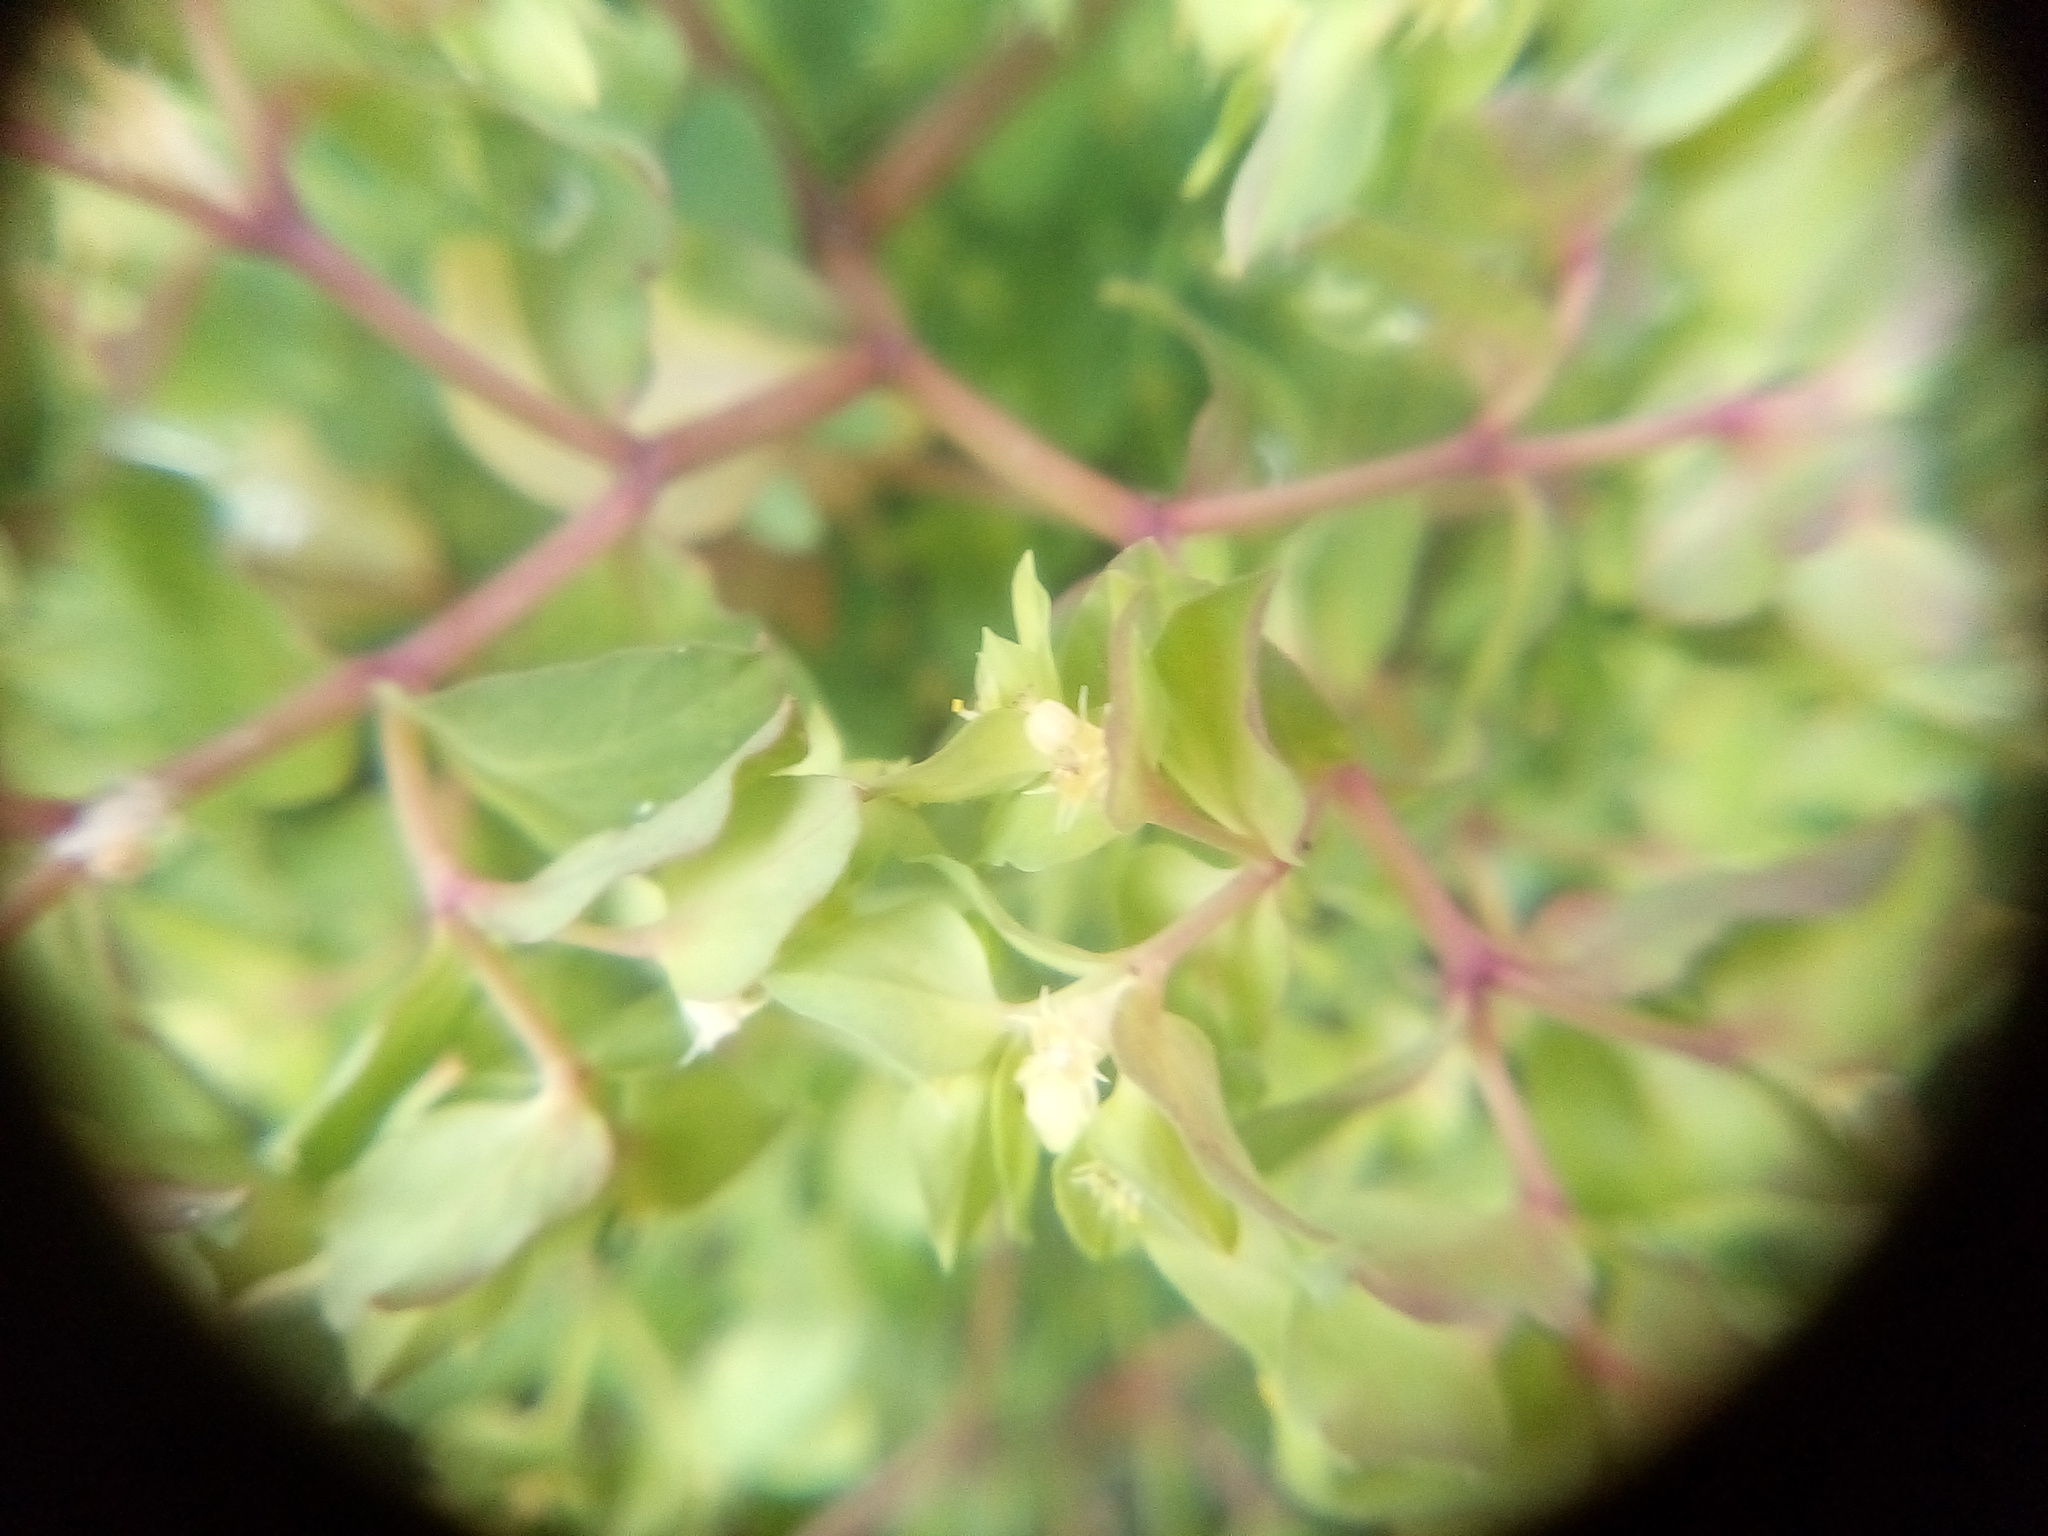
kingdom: Plantae
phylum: Tracheophyta
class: Magnoliopsida
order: Malpighiales
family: Euphorbiaceae
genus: Euphorbia
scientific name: Euphorbia peplus
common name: Petty spurge
